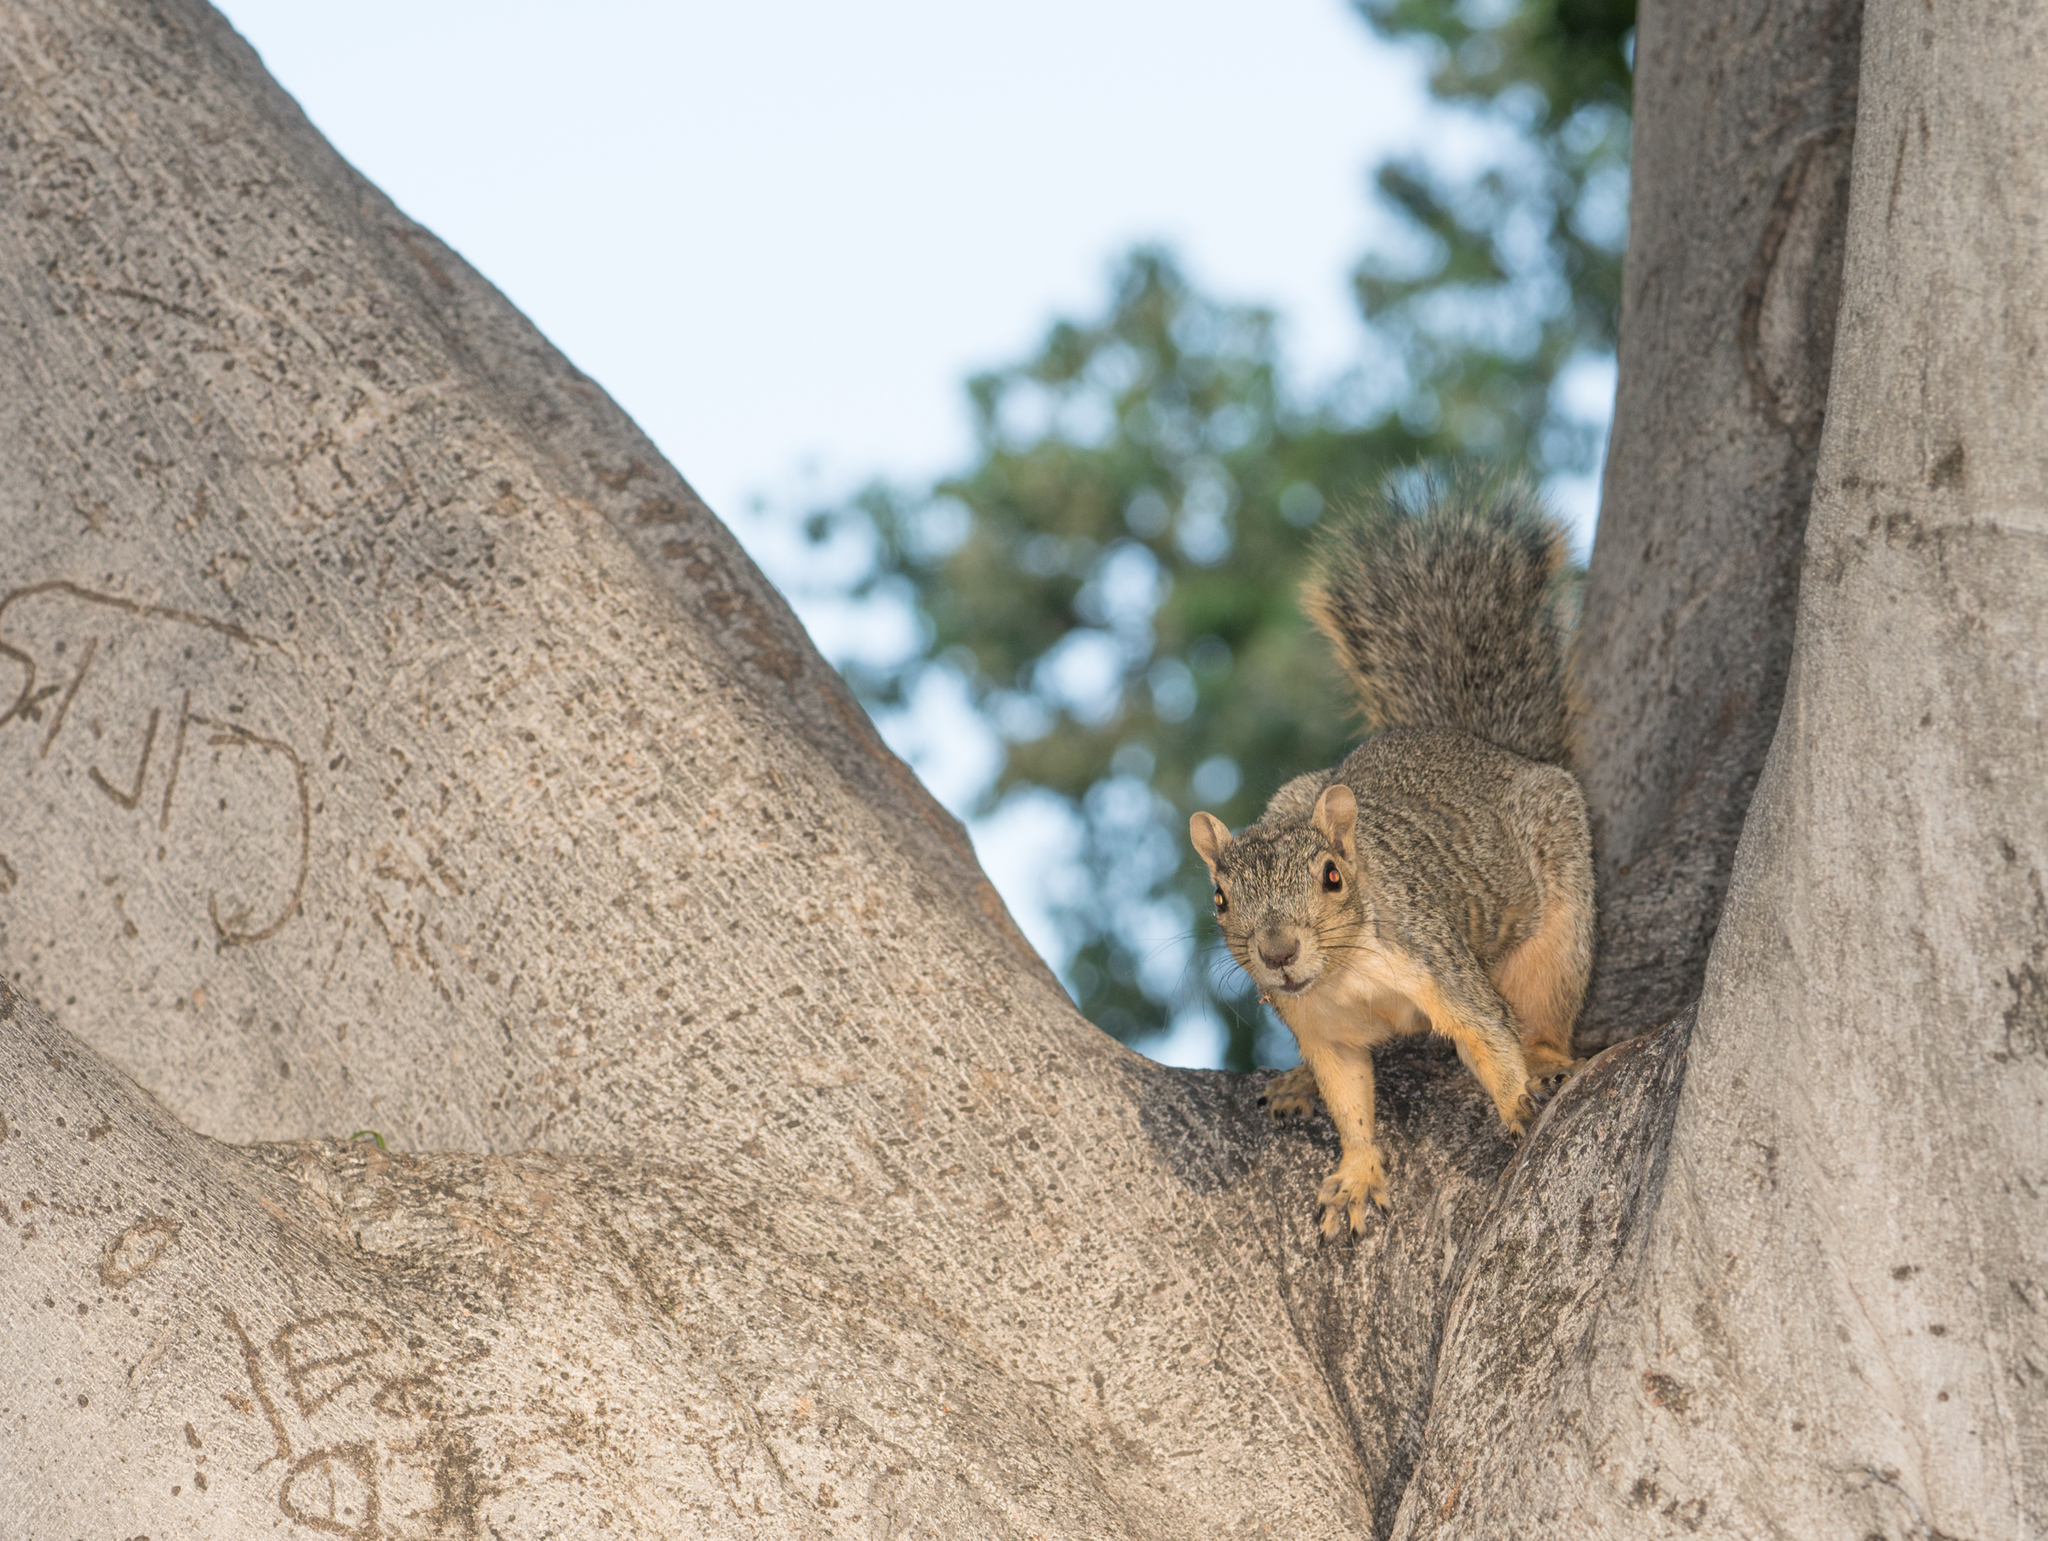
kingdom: Animalia
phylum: Chordata
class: Mammalia
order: Rodentia
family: Sciuridae
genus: Sciurus
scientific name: Sciurus niger
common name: Fox squirrel
